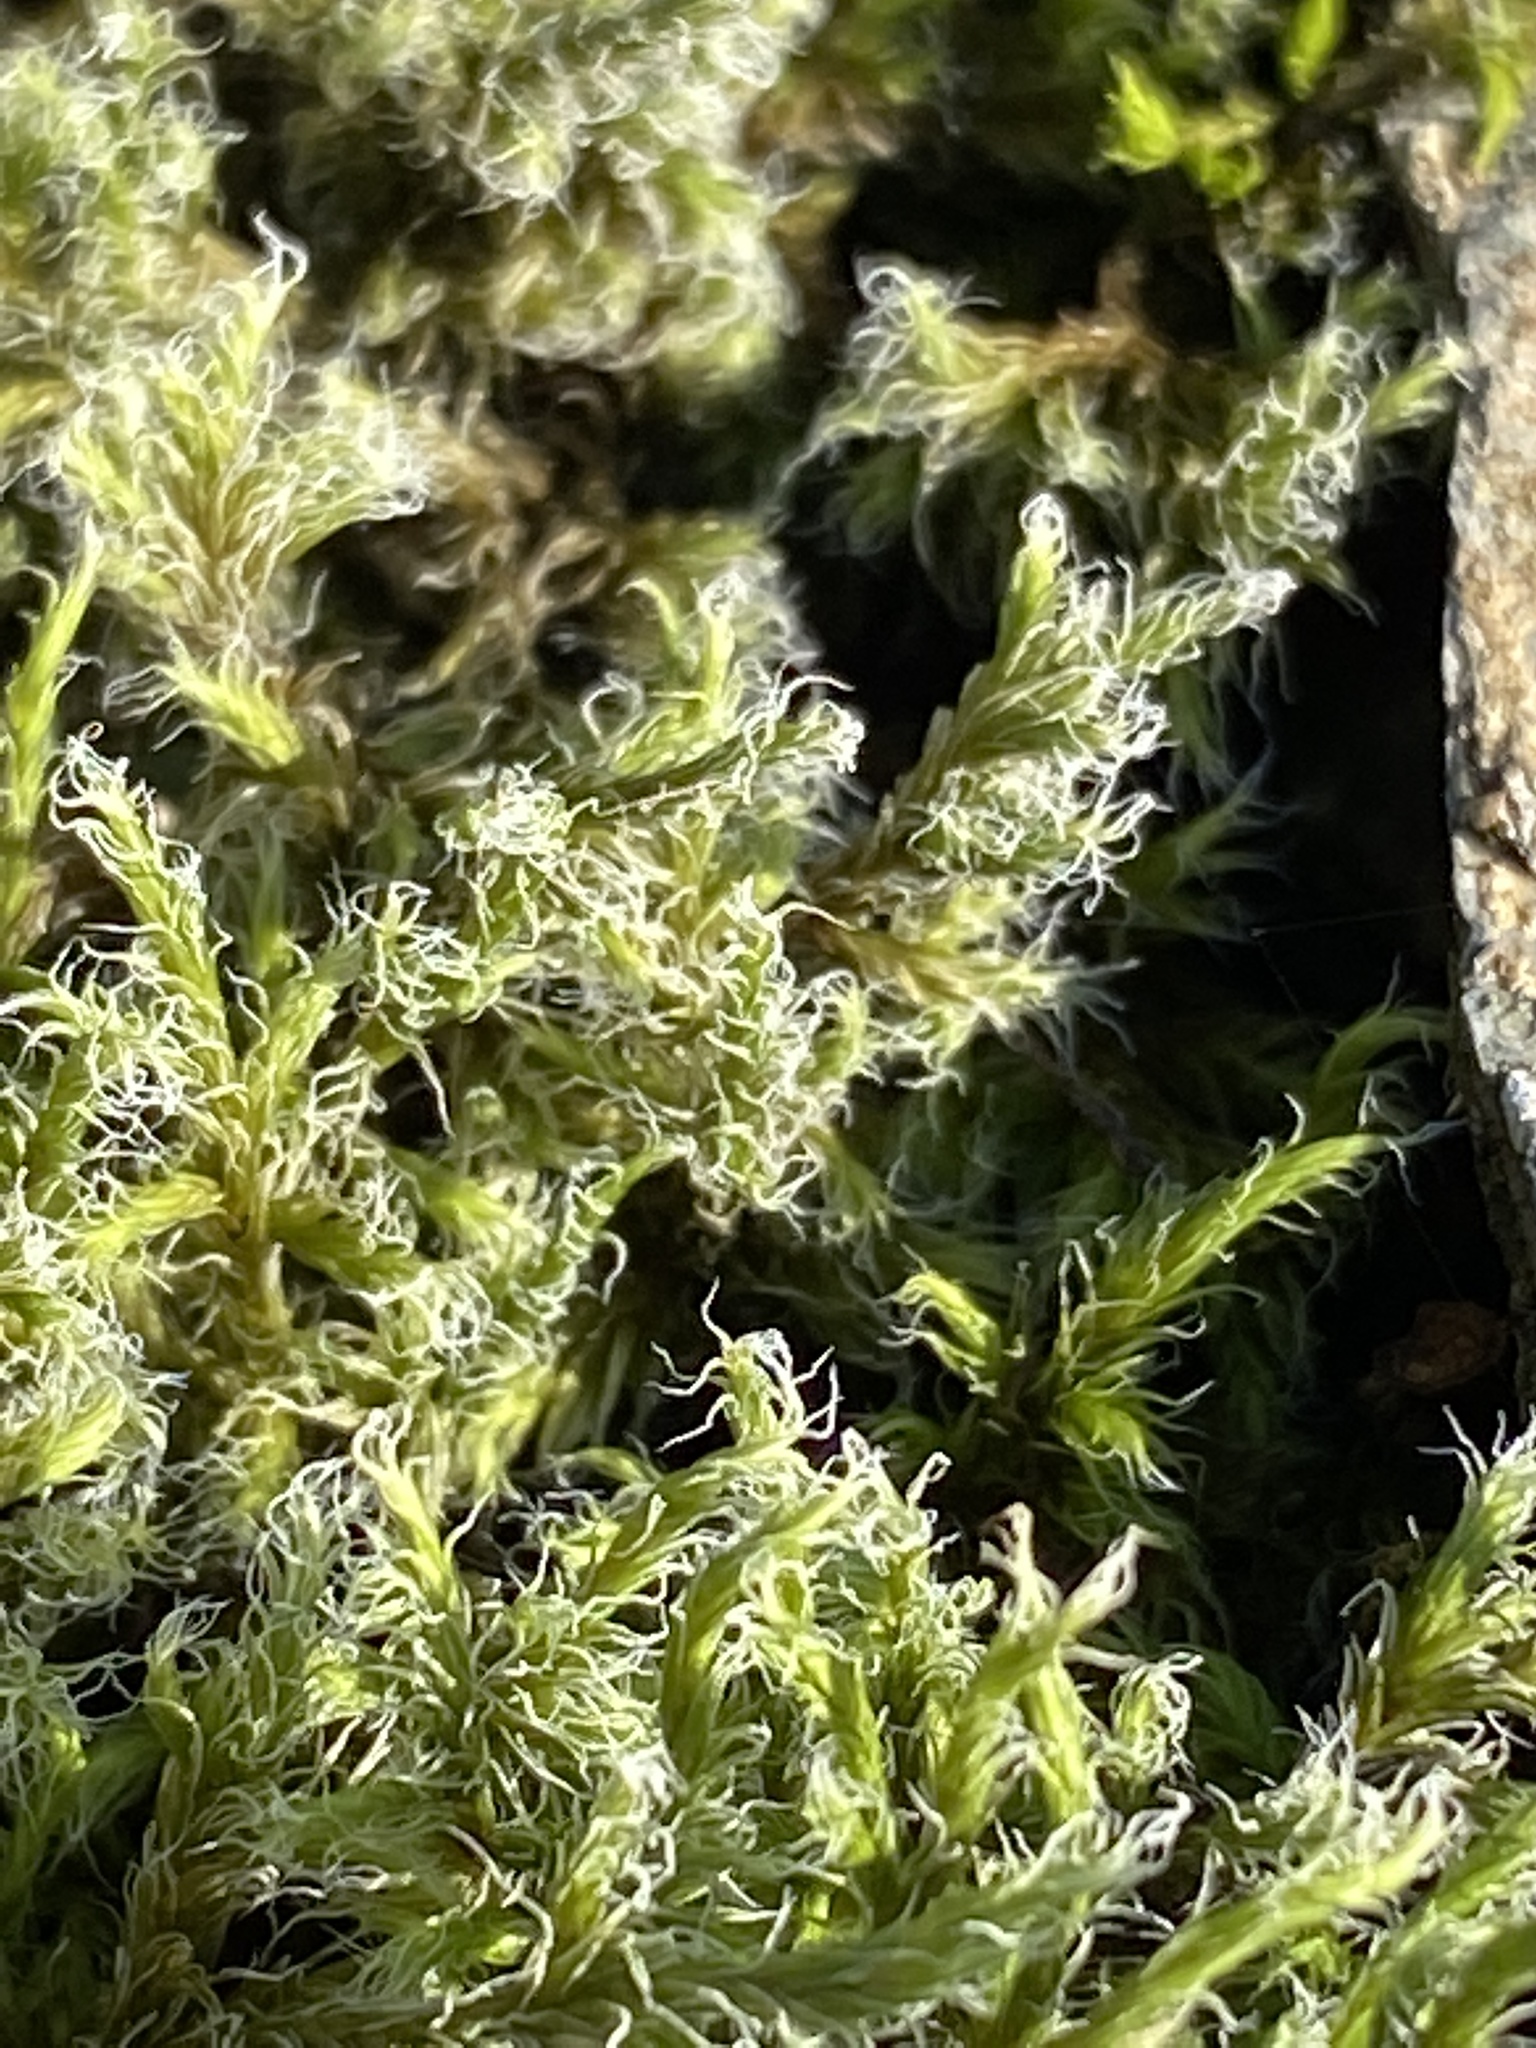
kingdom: Plantae
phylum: Bryophyta
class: Bryopsida
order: Grimmiales
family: Grimmiaceae
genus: Racomitrium
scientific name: Racomitrium lanuginosum
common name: Hoary rock moss
